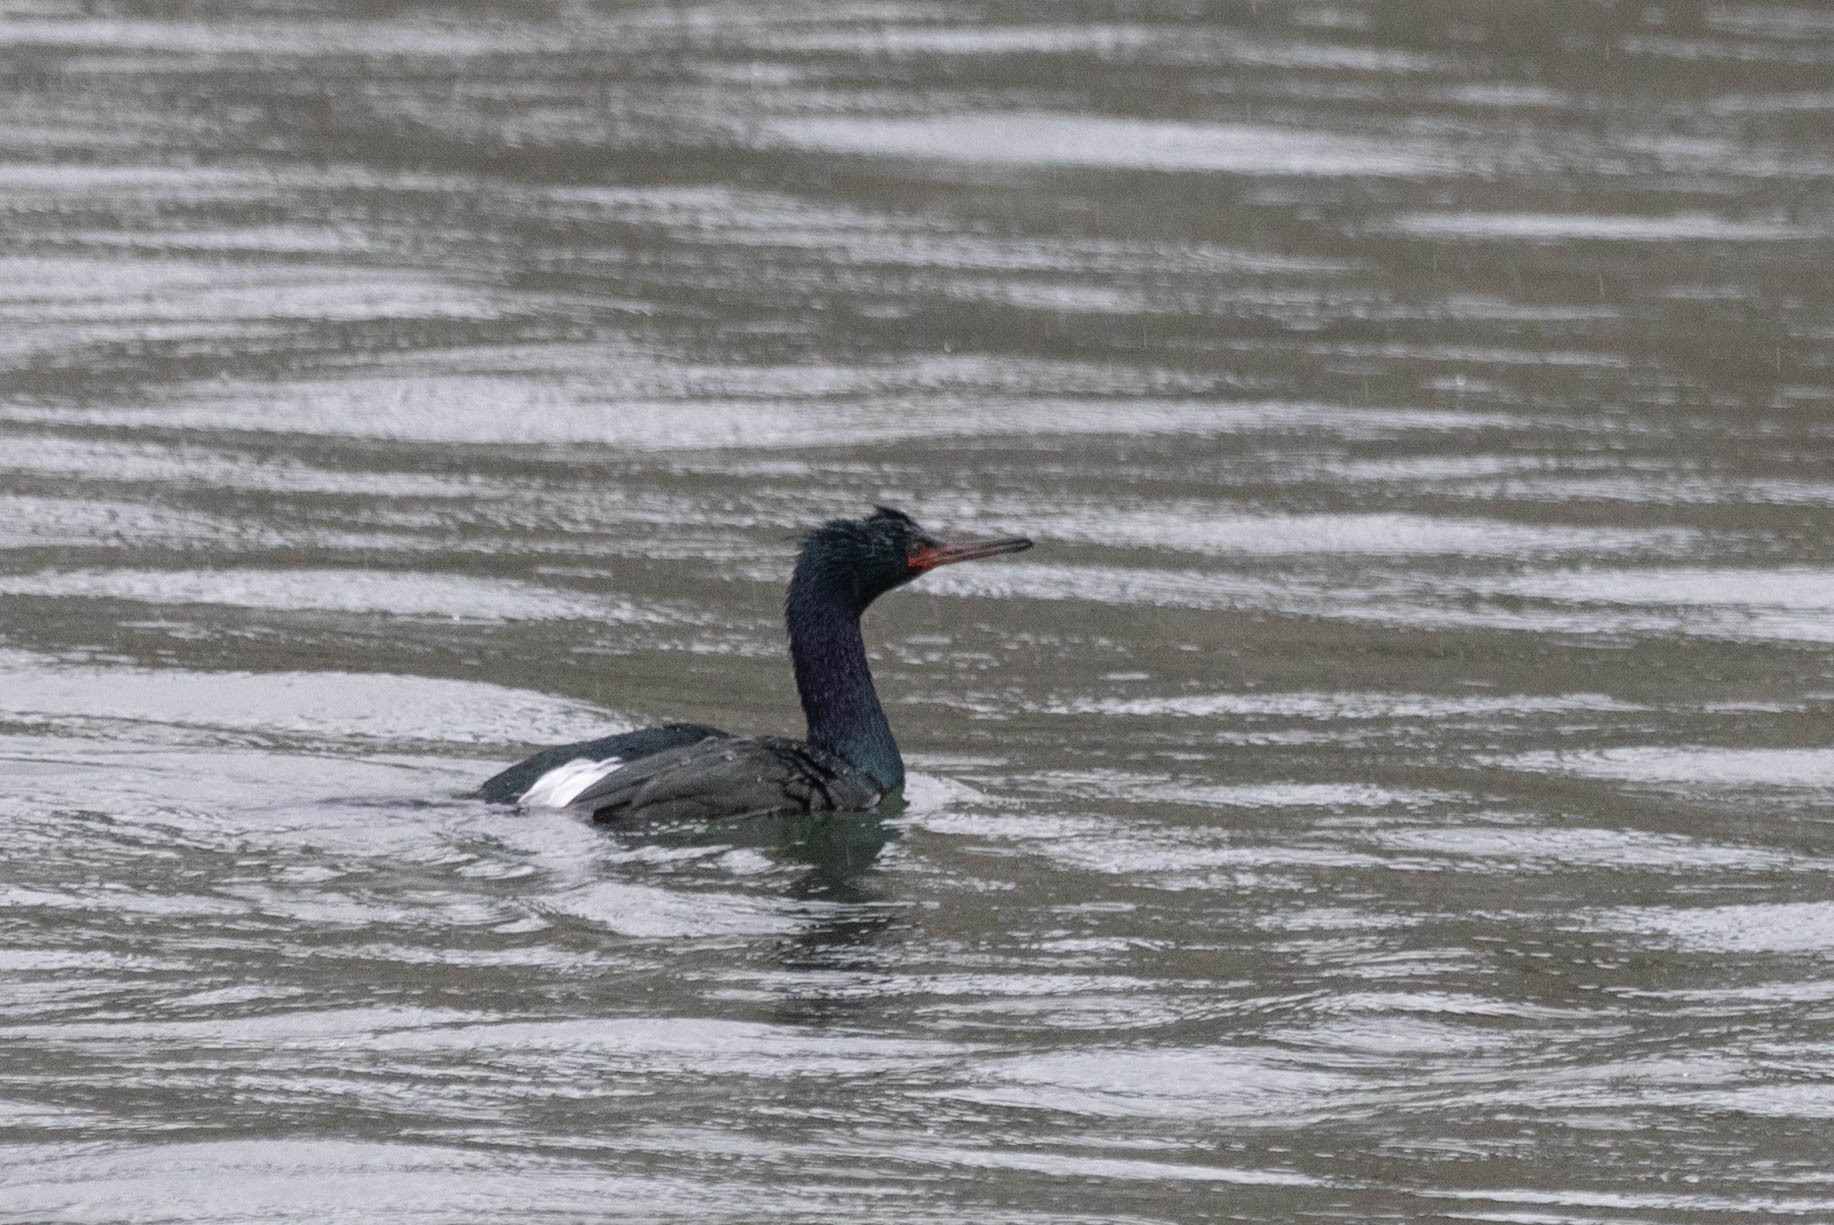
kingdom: Animalia
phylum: Chordata
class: Aves
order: Suliformes
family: Phalacrocoracidae
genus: Phalacrocorax
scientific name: Phalacrocorax pelagicus
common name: Pelagic cormorant
